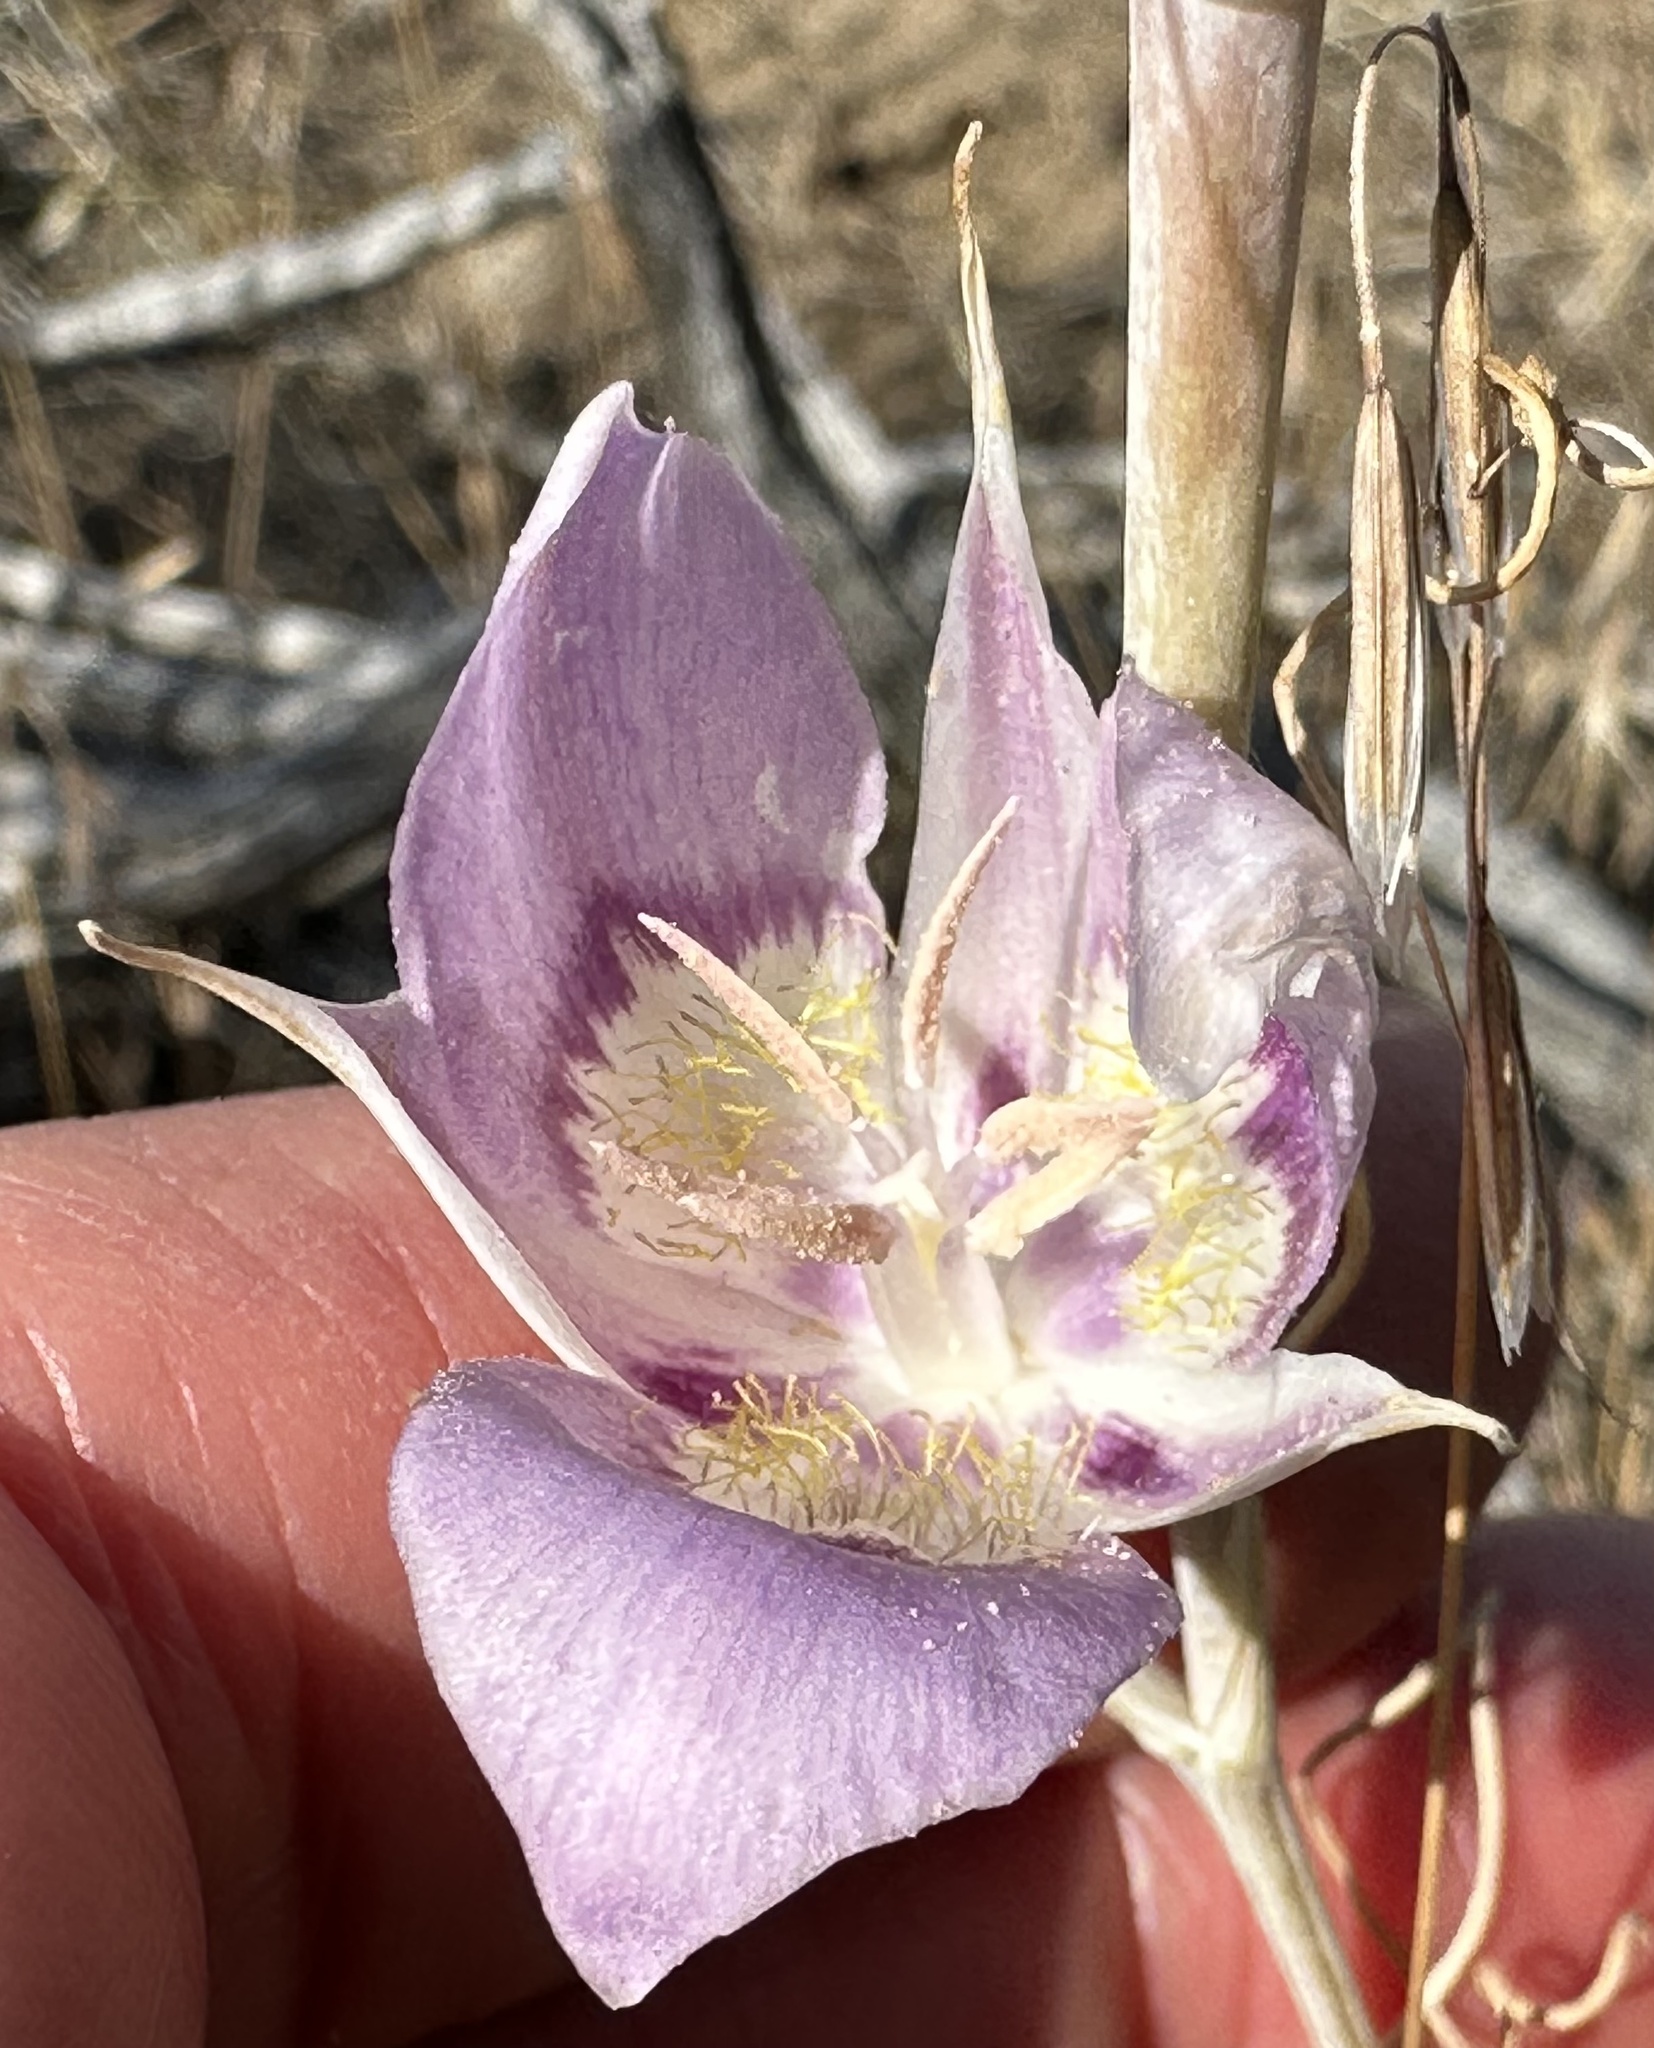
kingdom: Plantae
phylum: Tracheophyta
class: Liliopsida
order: Liliales
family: Liliaceae
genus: Calochortus
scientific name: Calochortus macrocarpus
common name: Green-band mariposa lily
